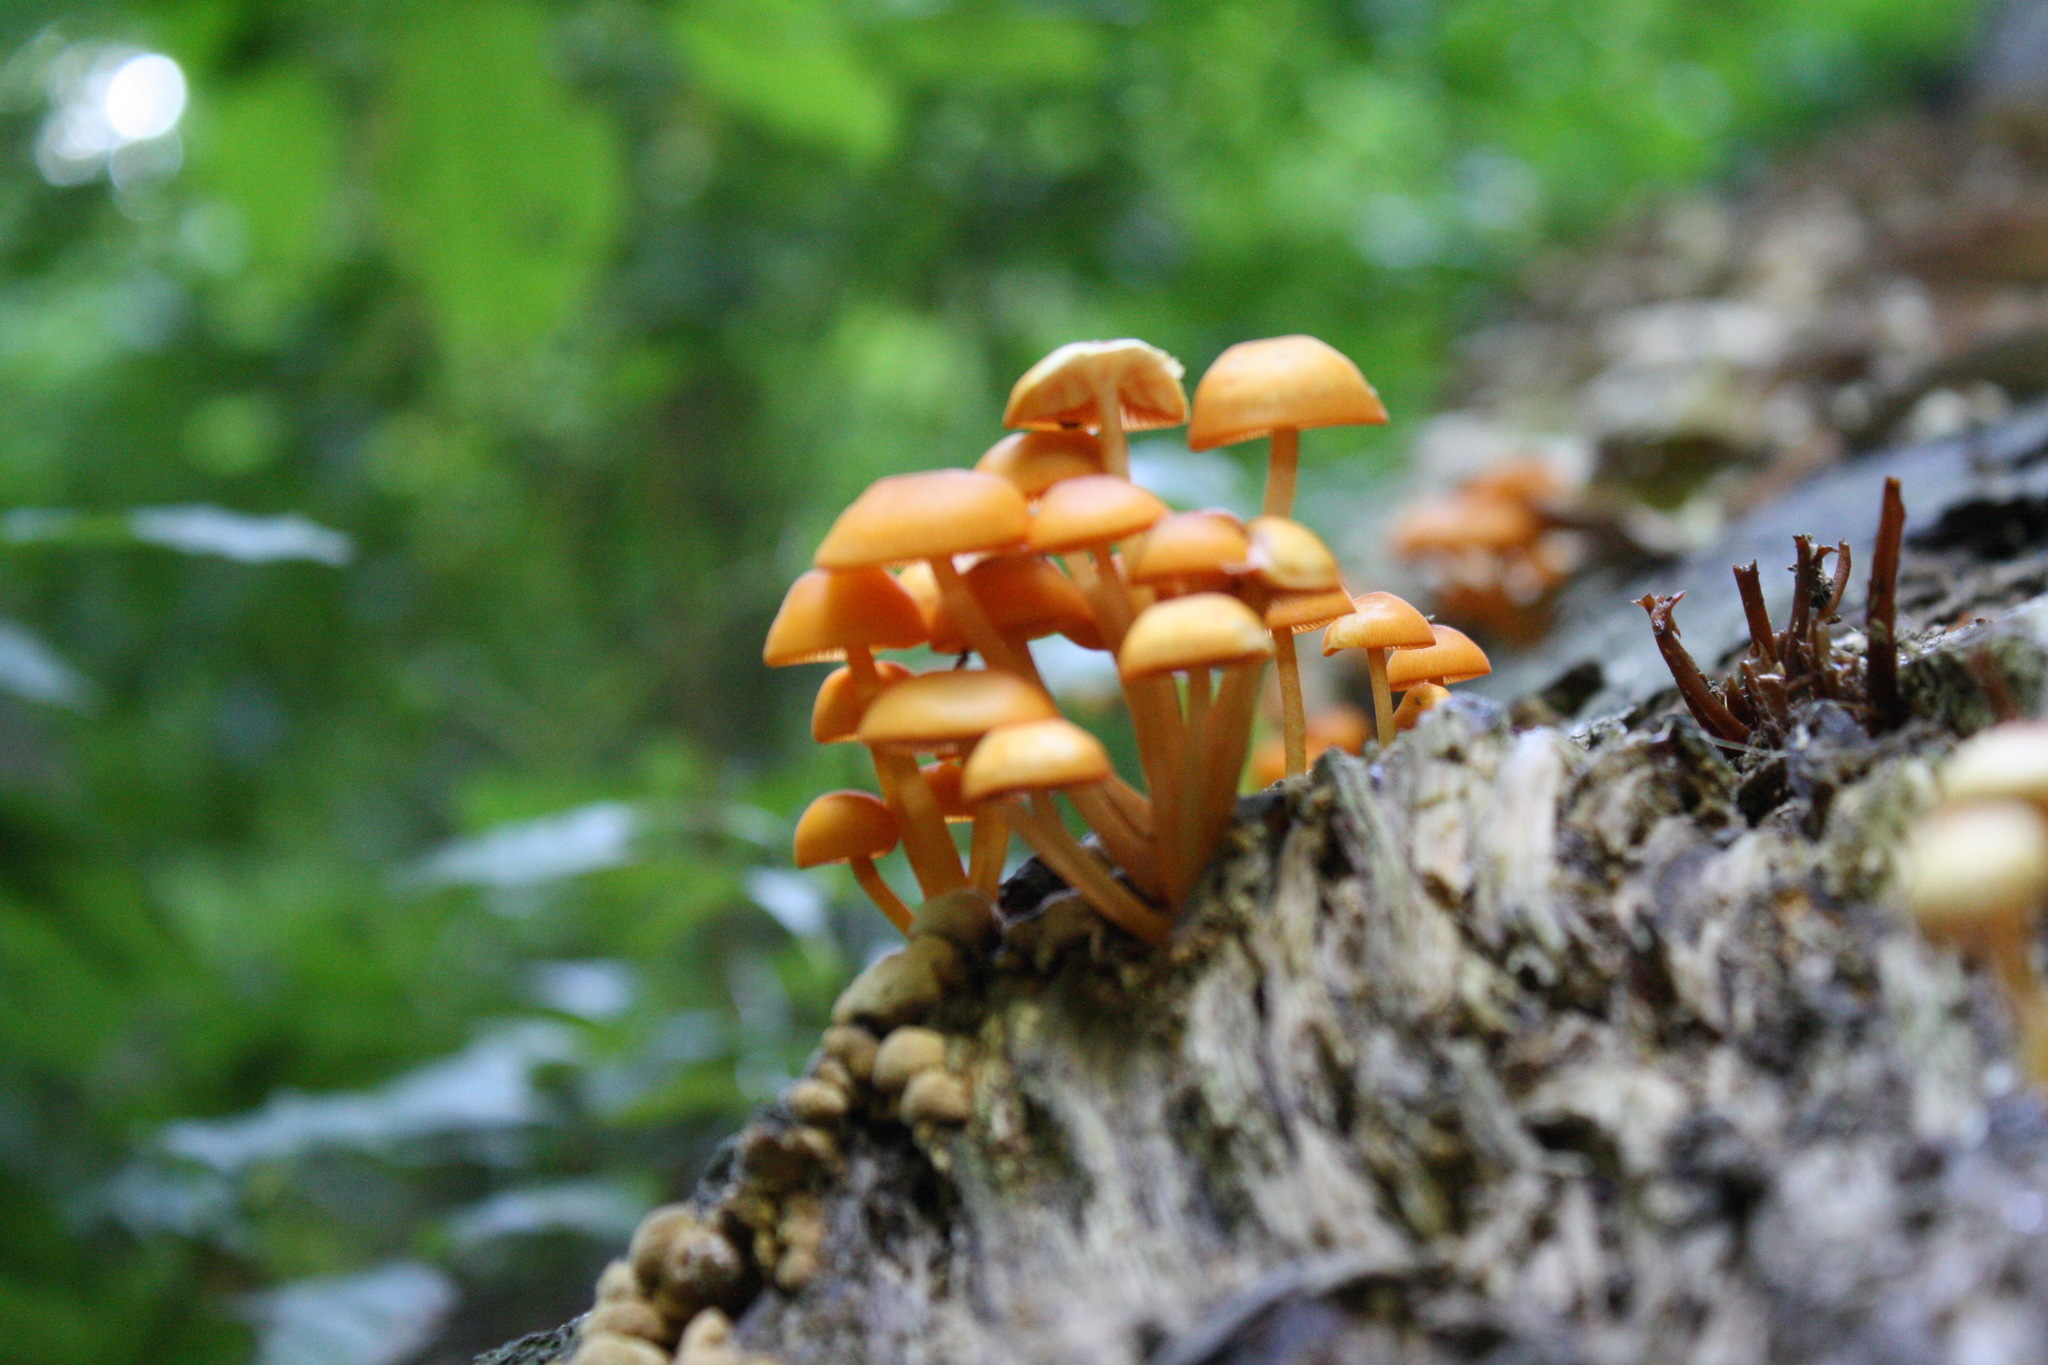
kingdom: Fungi
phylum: Basidiomycota
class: Agaricomycetes
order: Agaricales
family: Mycenaceae
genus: Mycena
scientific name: Mycena leaiana
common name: Orange mycena
